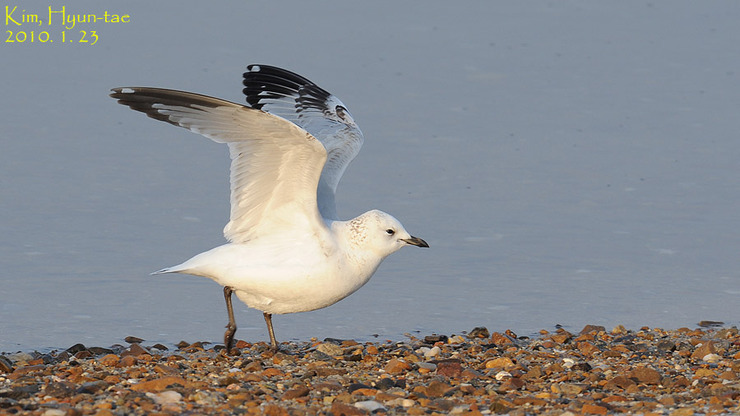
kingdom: Animalia
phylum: Chordata
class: Aves
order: Charadriiformes
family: Laridae
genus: Ichthyaetus
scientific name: Ichthyaetus relictus
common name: Relict gull
